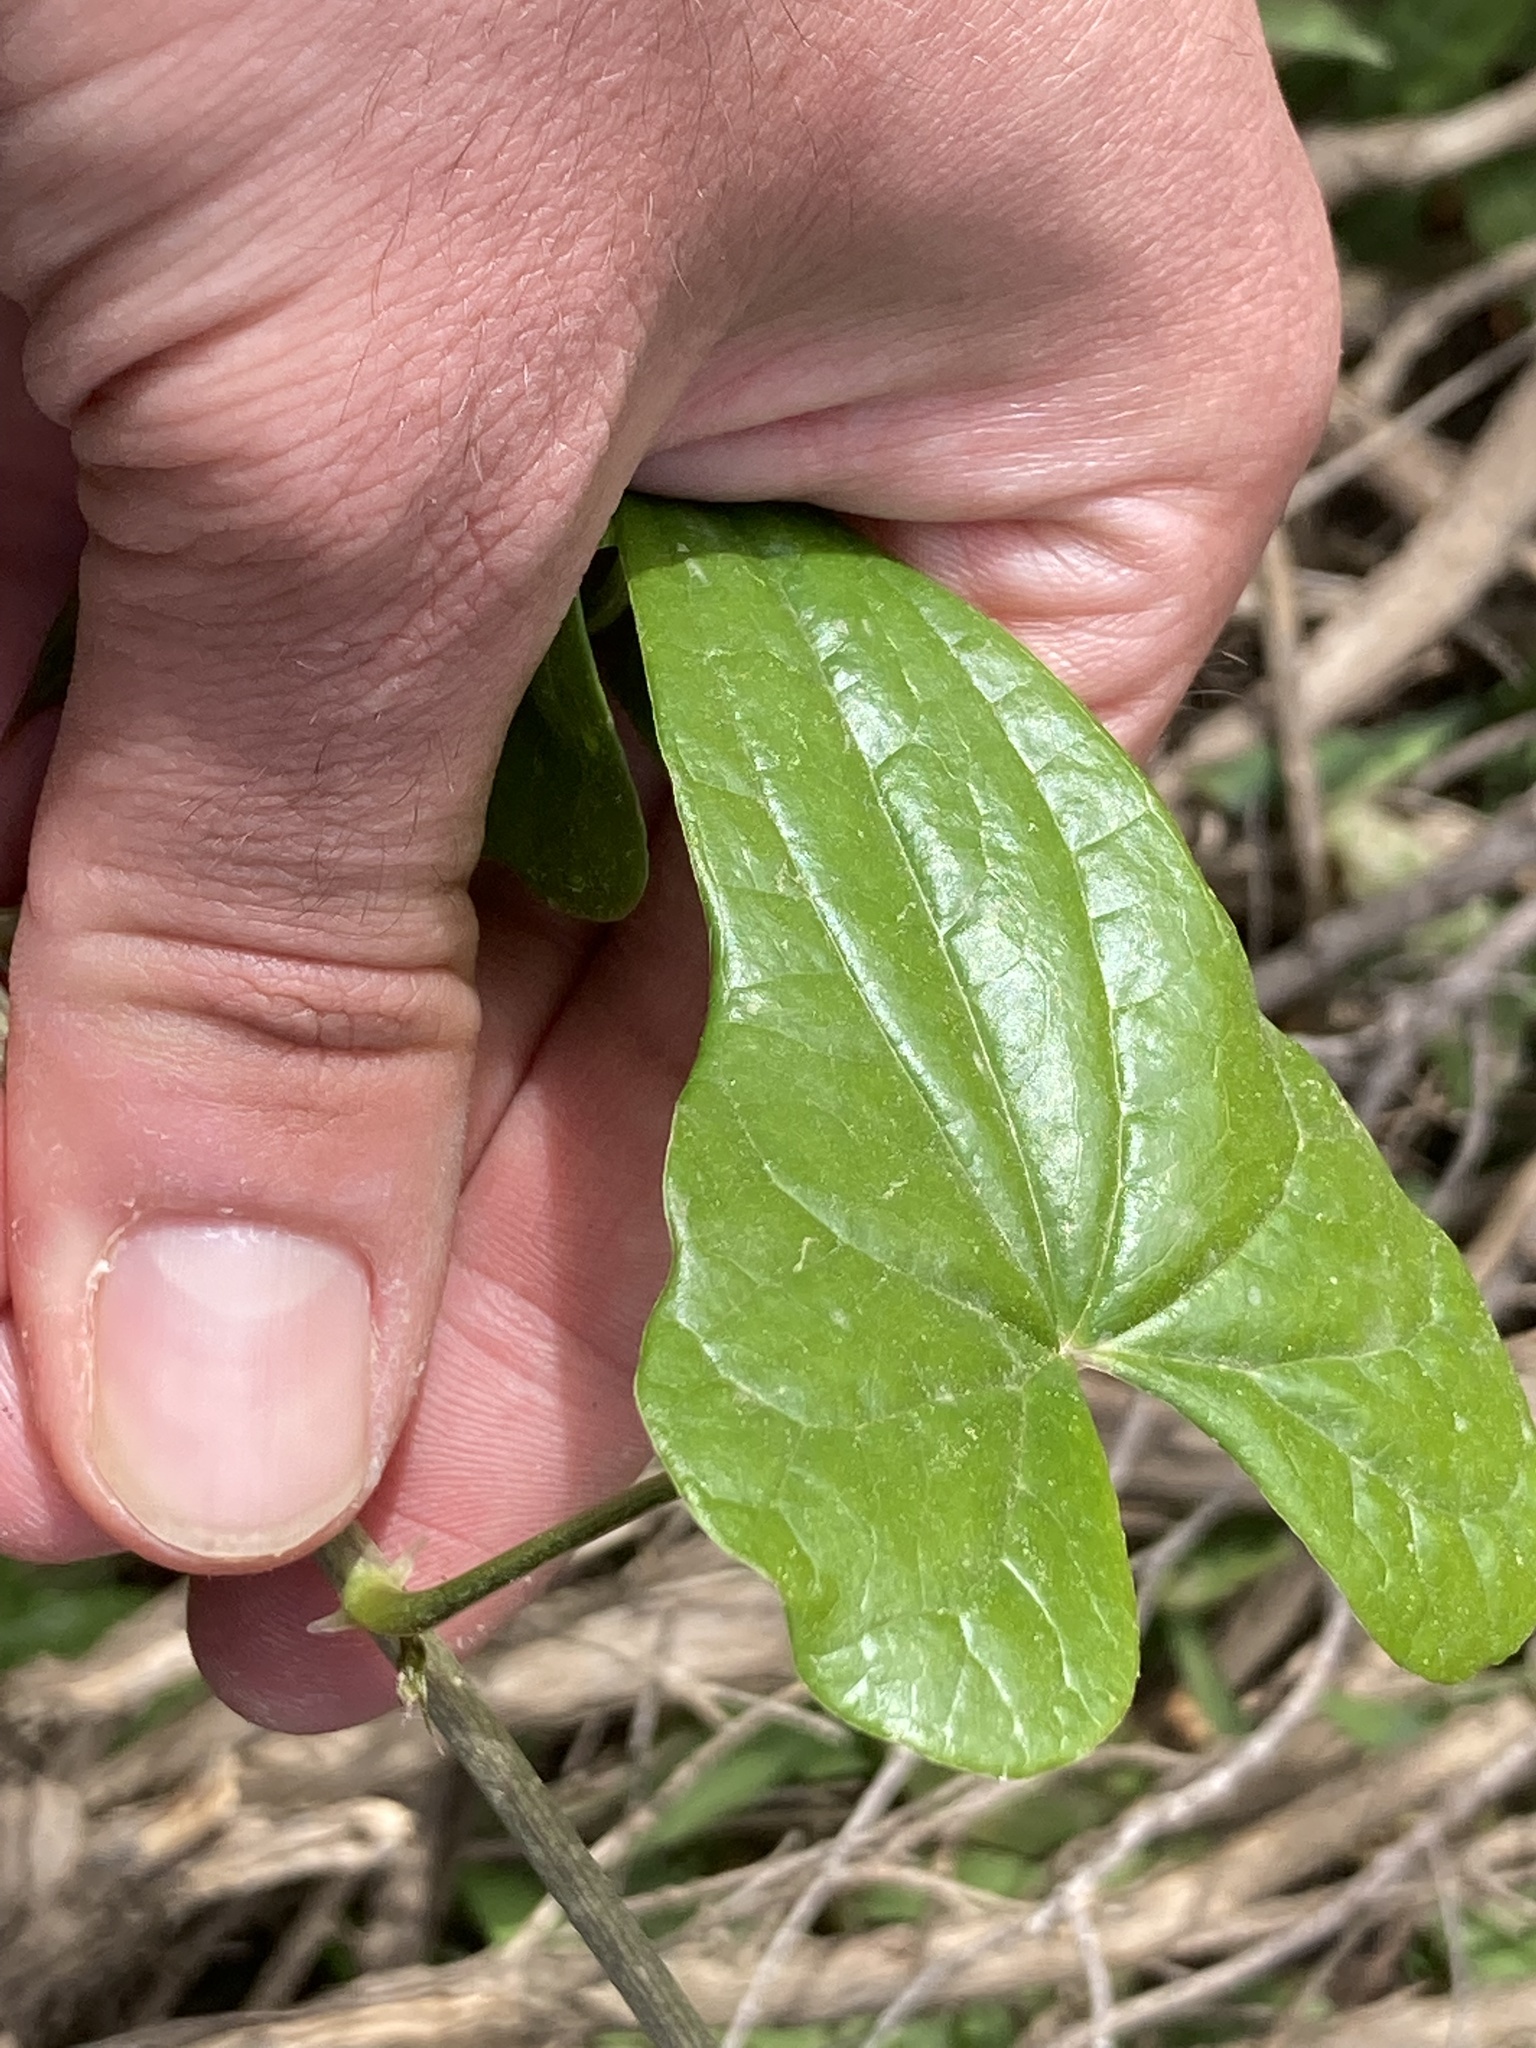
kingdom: Plantae
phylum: Tracheophyta
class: Liliopsida
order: Dioscoreales
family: Dioscoreaceae
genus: Dioscorea
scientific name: Dioscorea communis
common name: Black-bindweed
